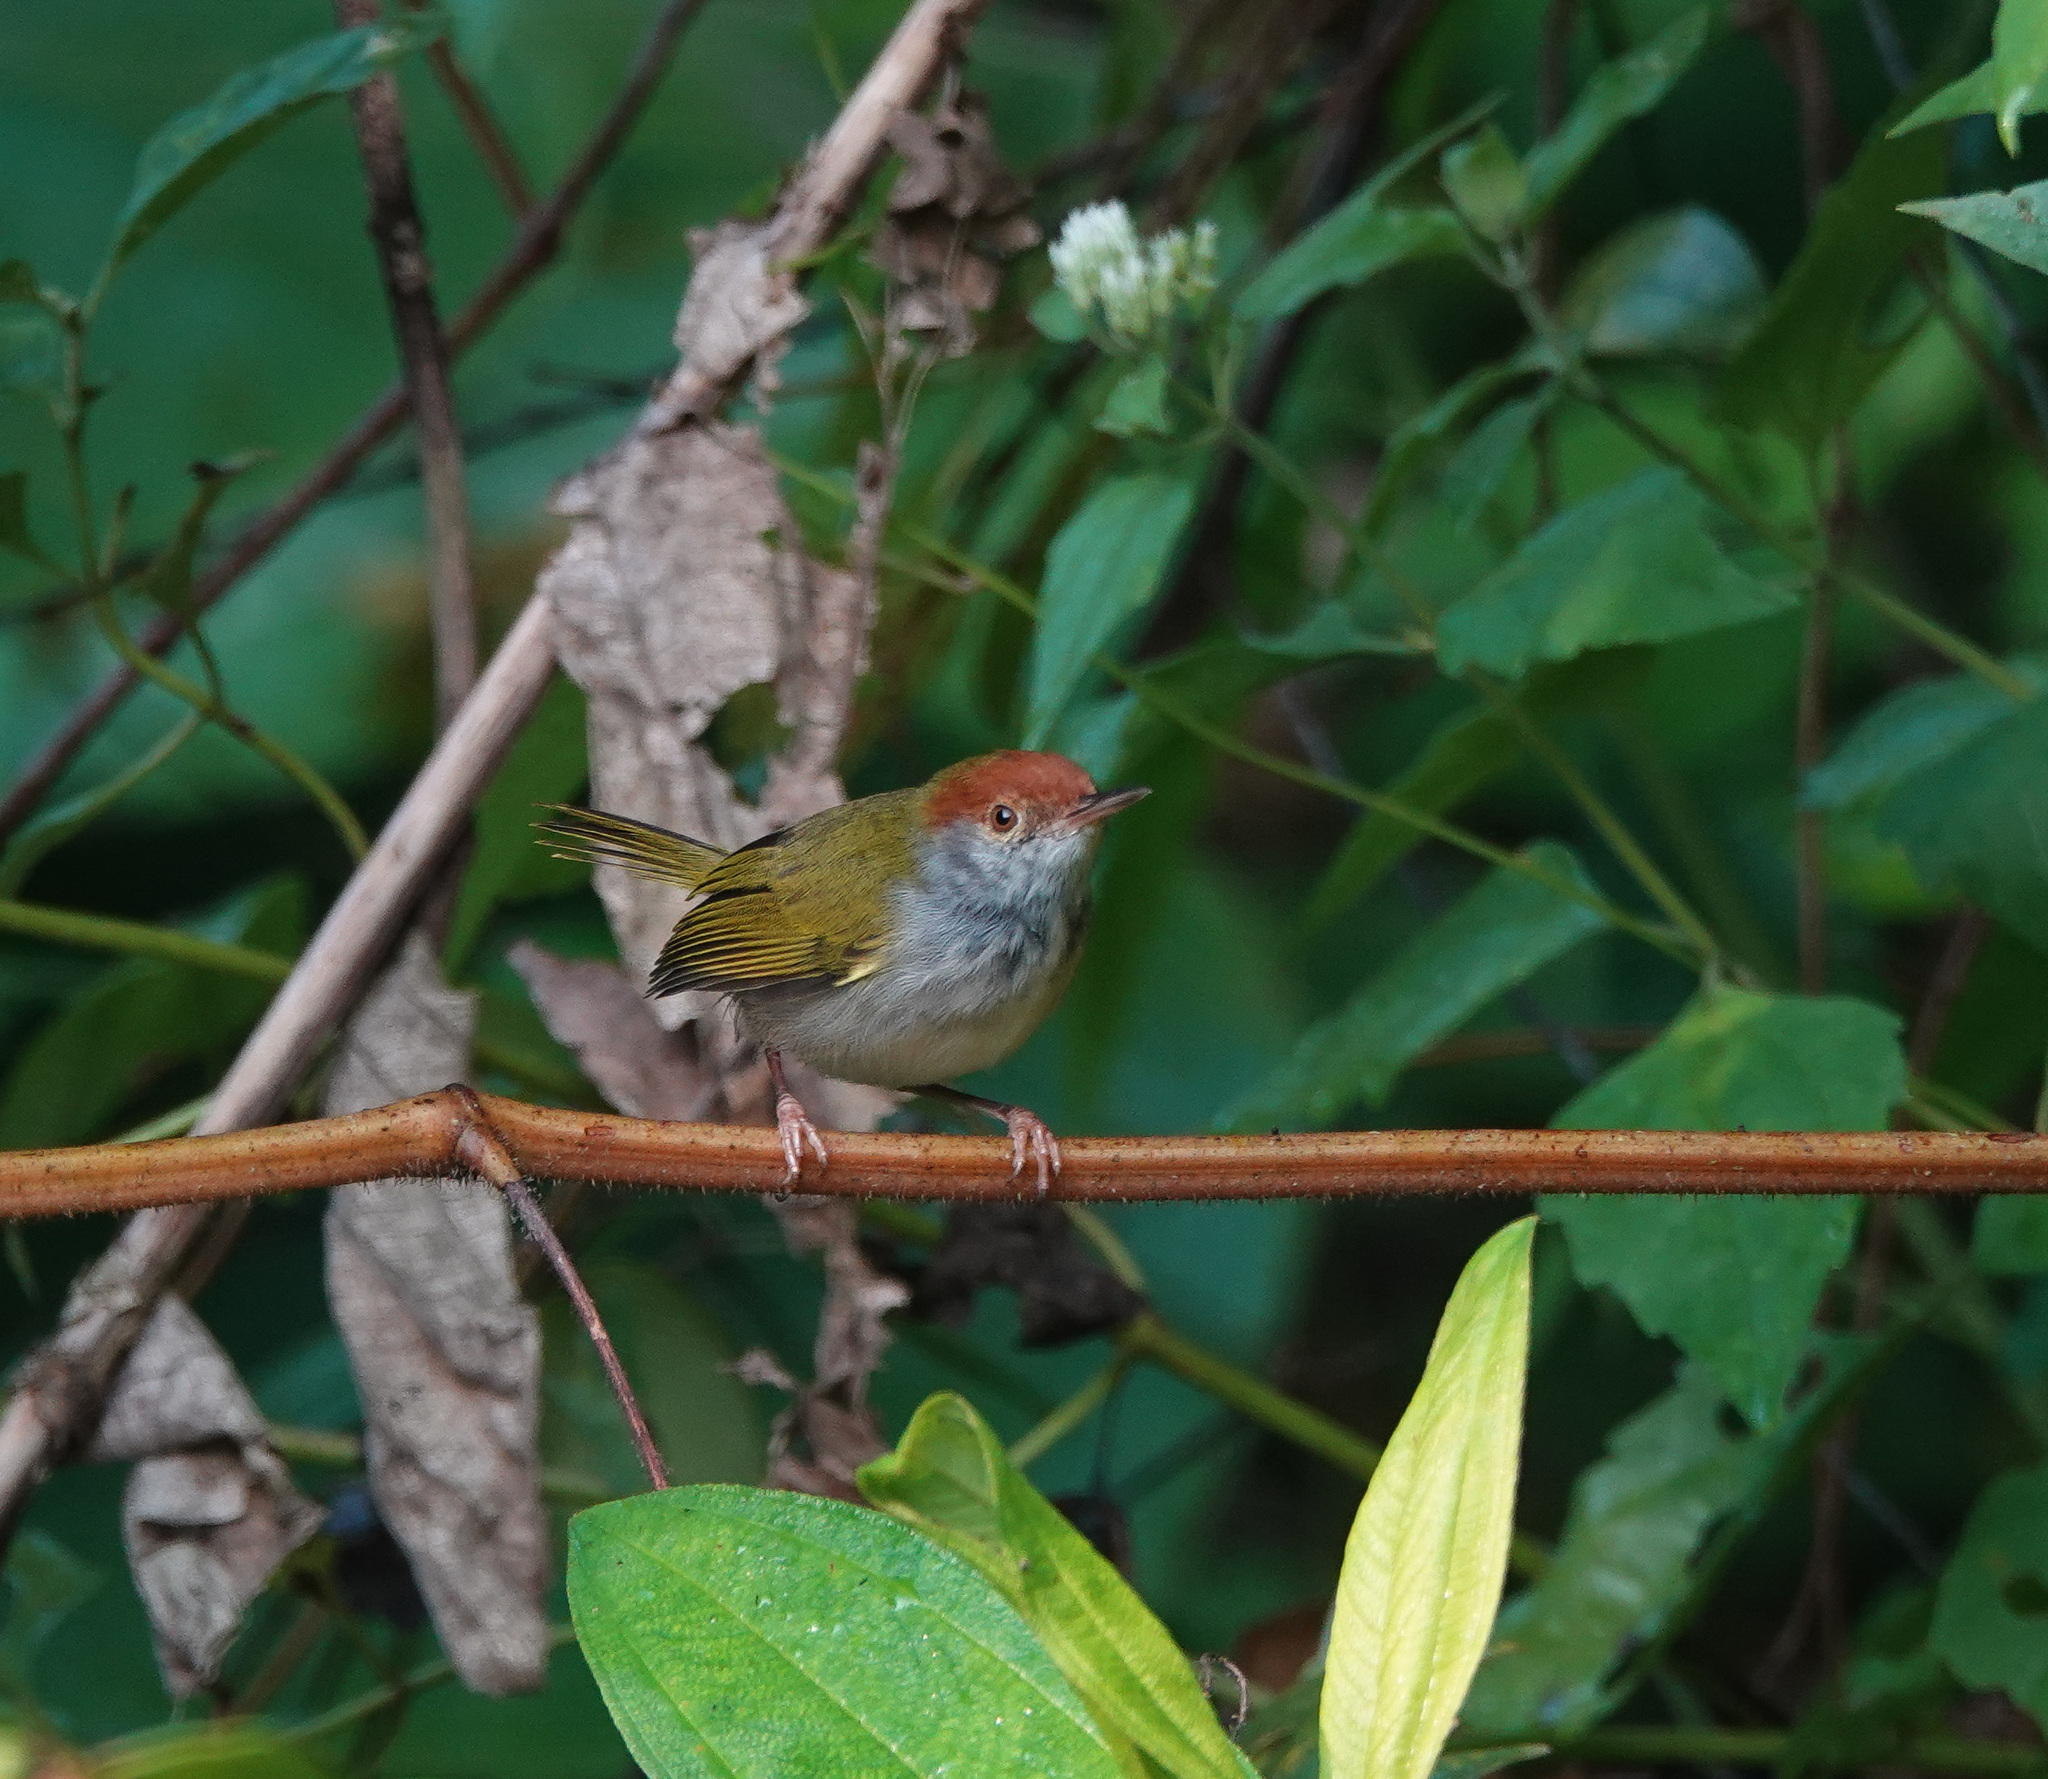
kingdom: Animalia
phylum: Chordata
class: Aves
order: Passeriformes
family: Cisticolidae
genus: Orthotomus
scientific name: Orthotomus atrogularis
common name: Dark-necked tailorbird
